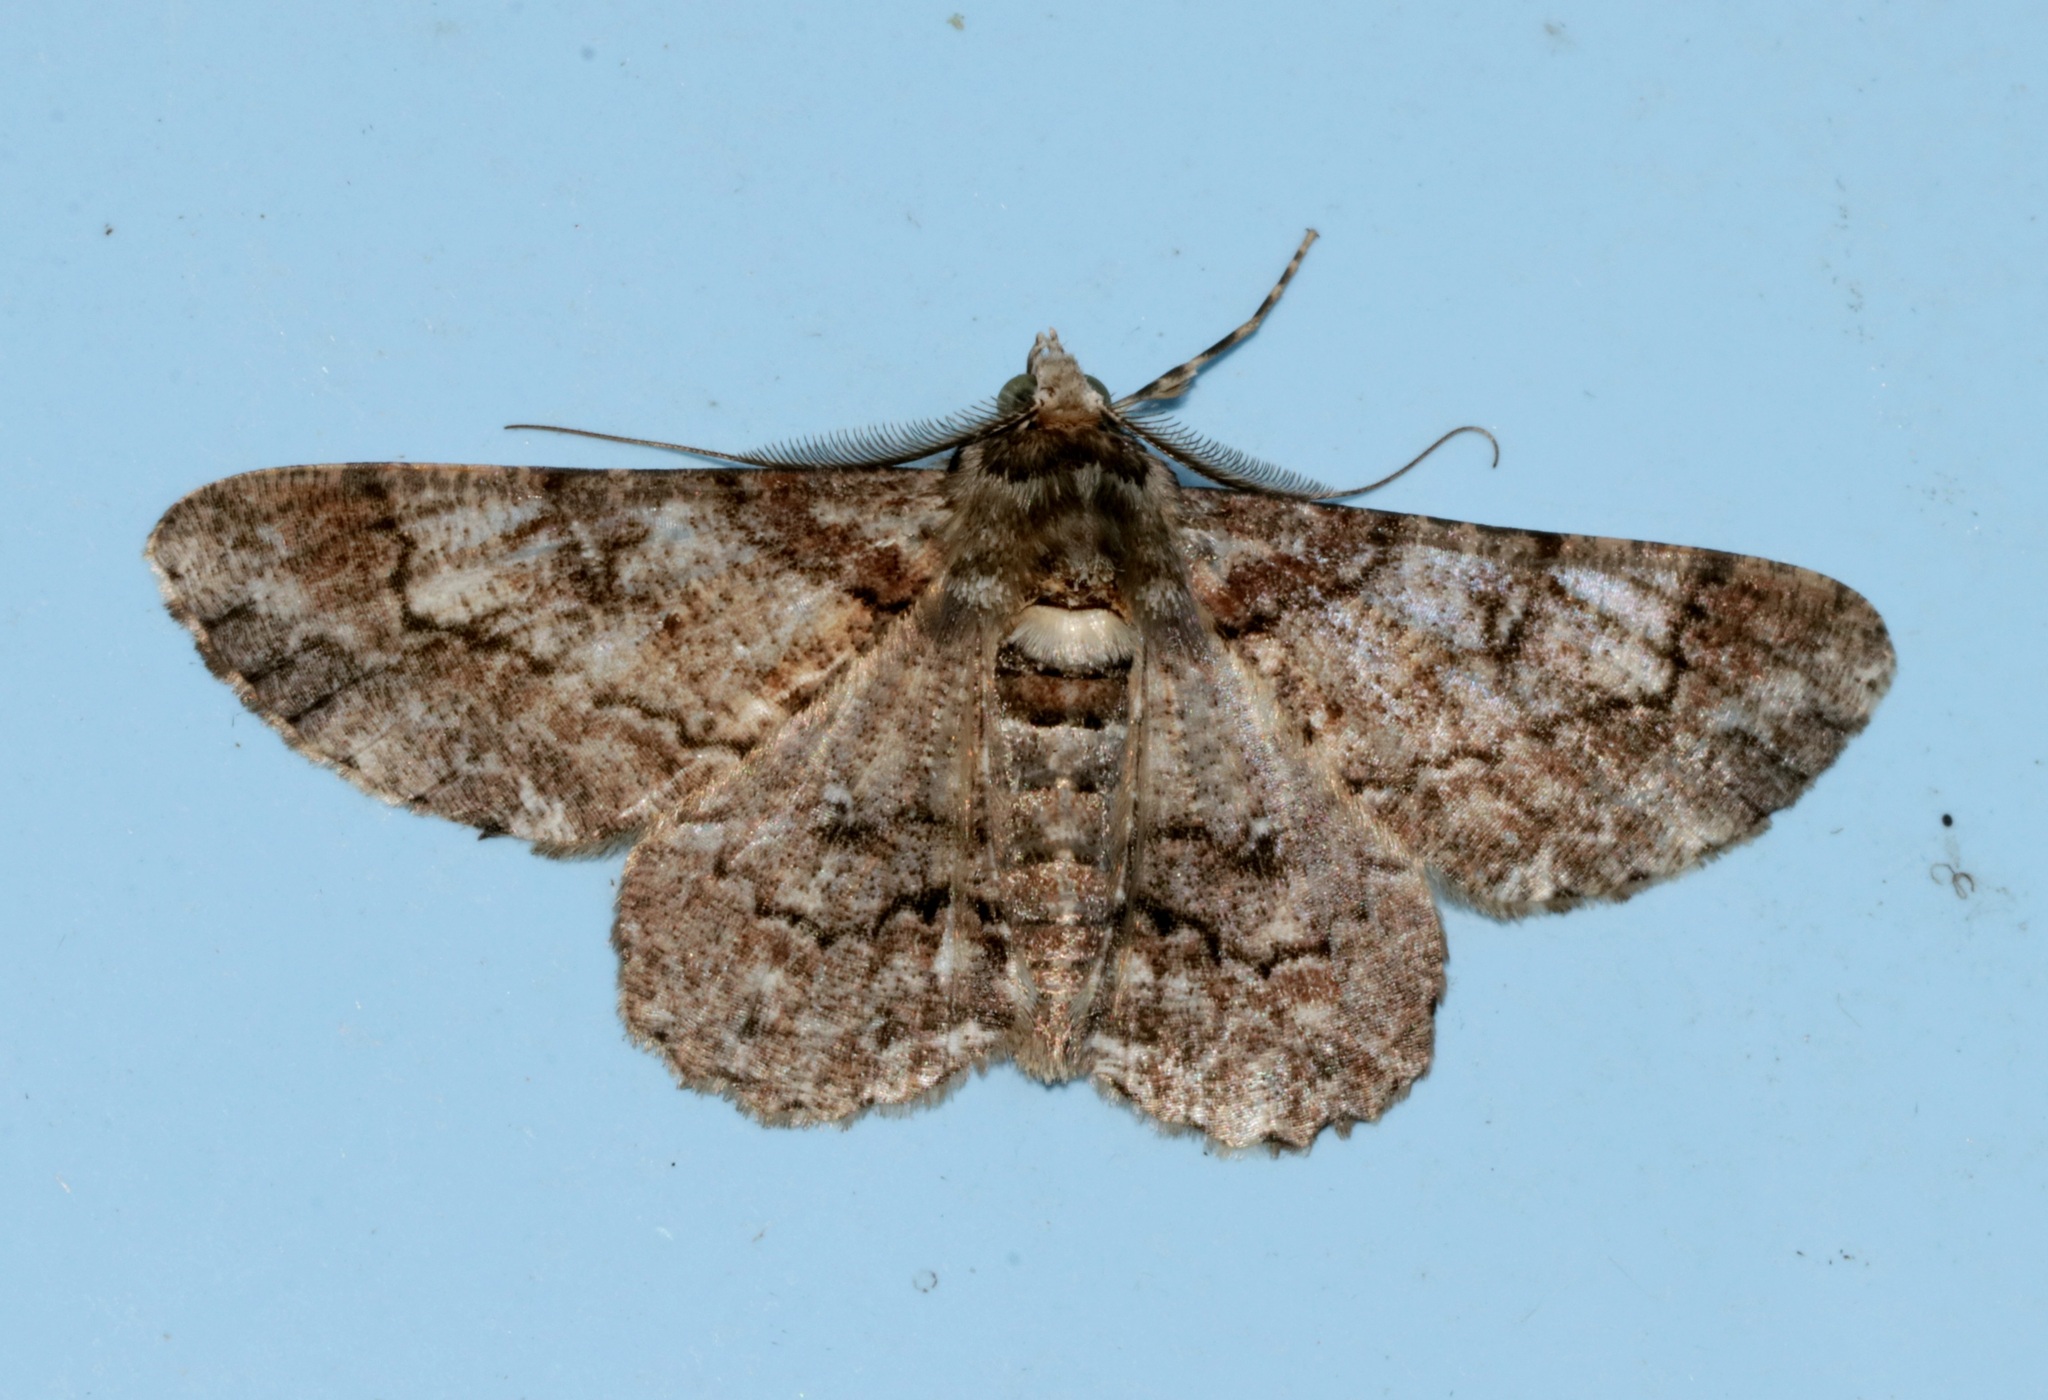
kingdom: Animalia
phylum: Arthropoda
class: Insecta
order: Lepidoptera
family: Geometridae
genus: Cleora
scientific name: Cleora alienaria
